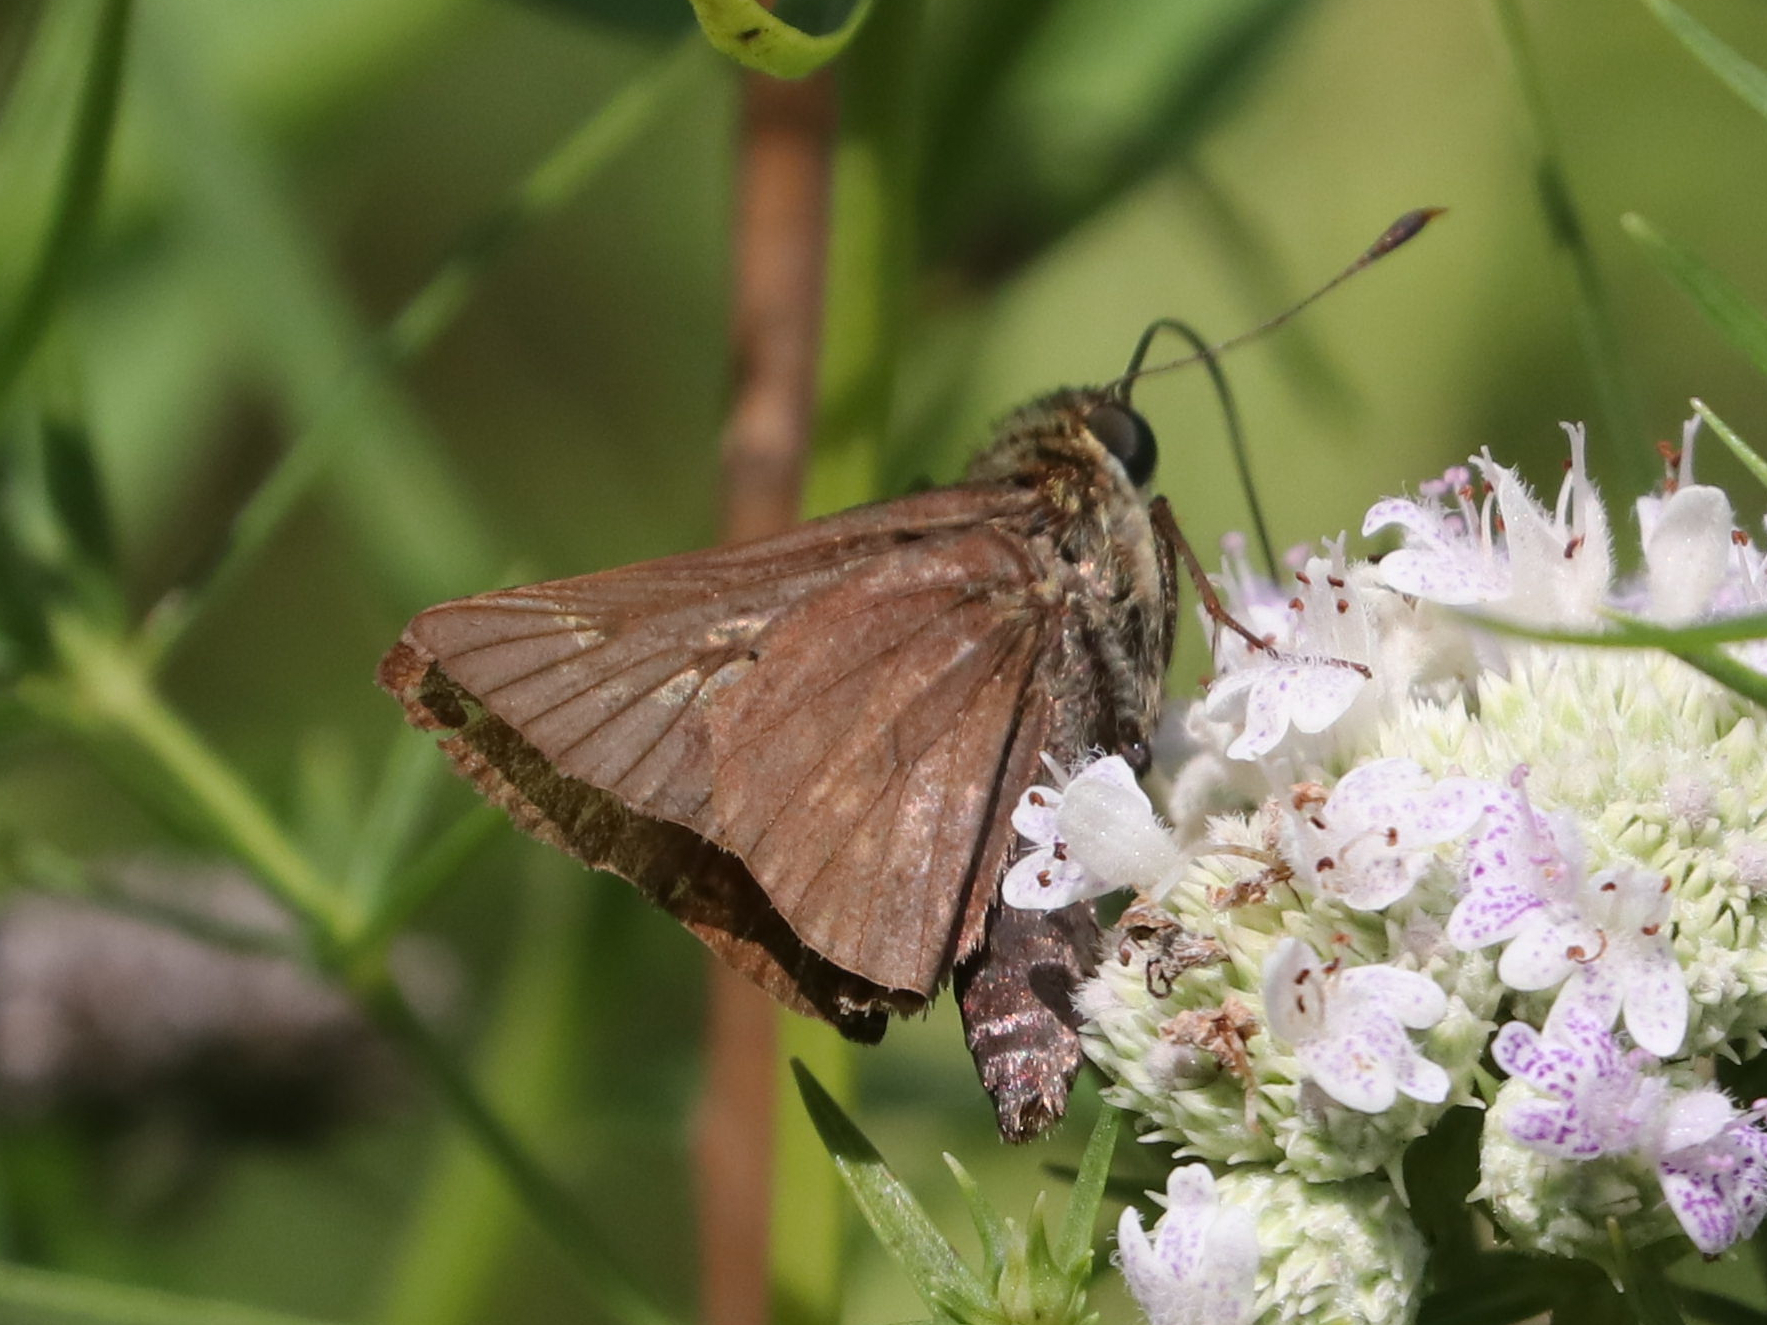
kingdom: Animalia
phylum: Arthropoda
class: Insecta
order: Lepidoptera
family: Hesperiidae
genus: Vernia
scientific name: Vernia verna
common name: Little glassywing
